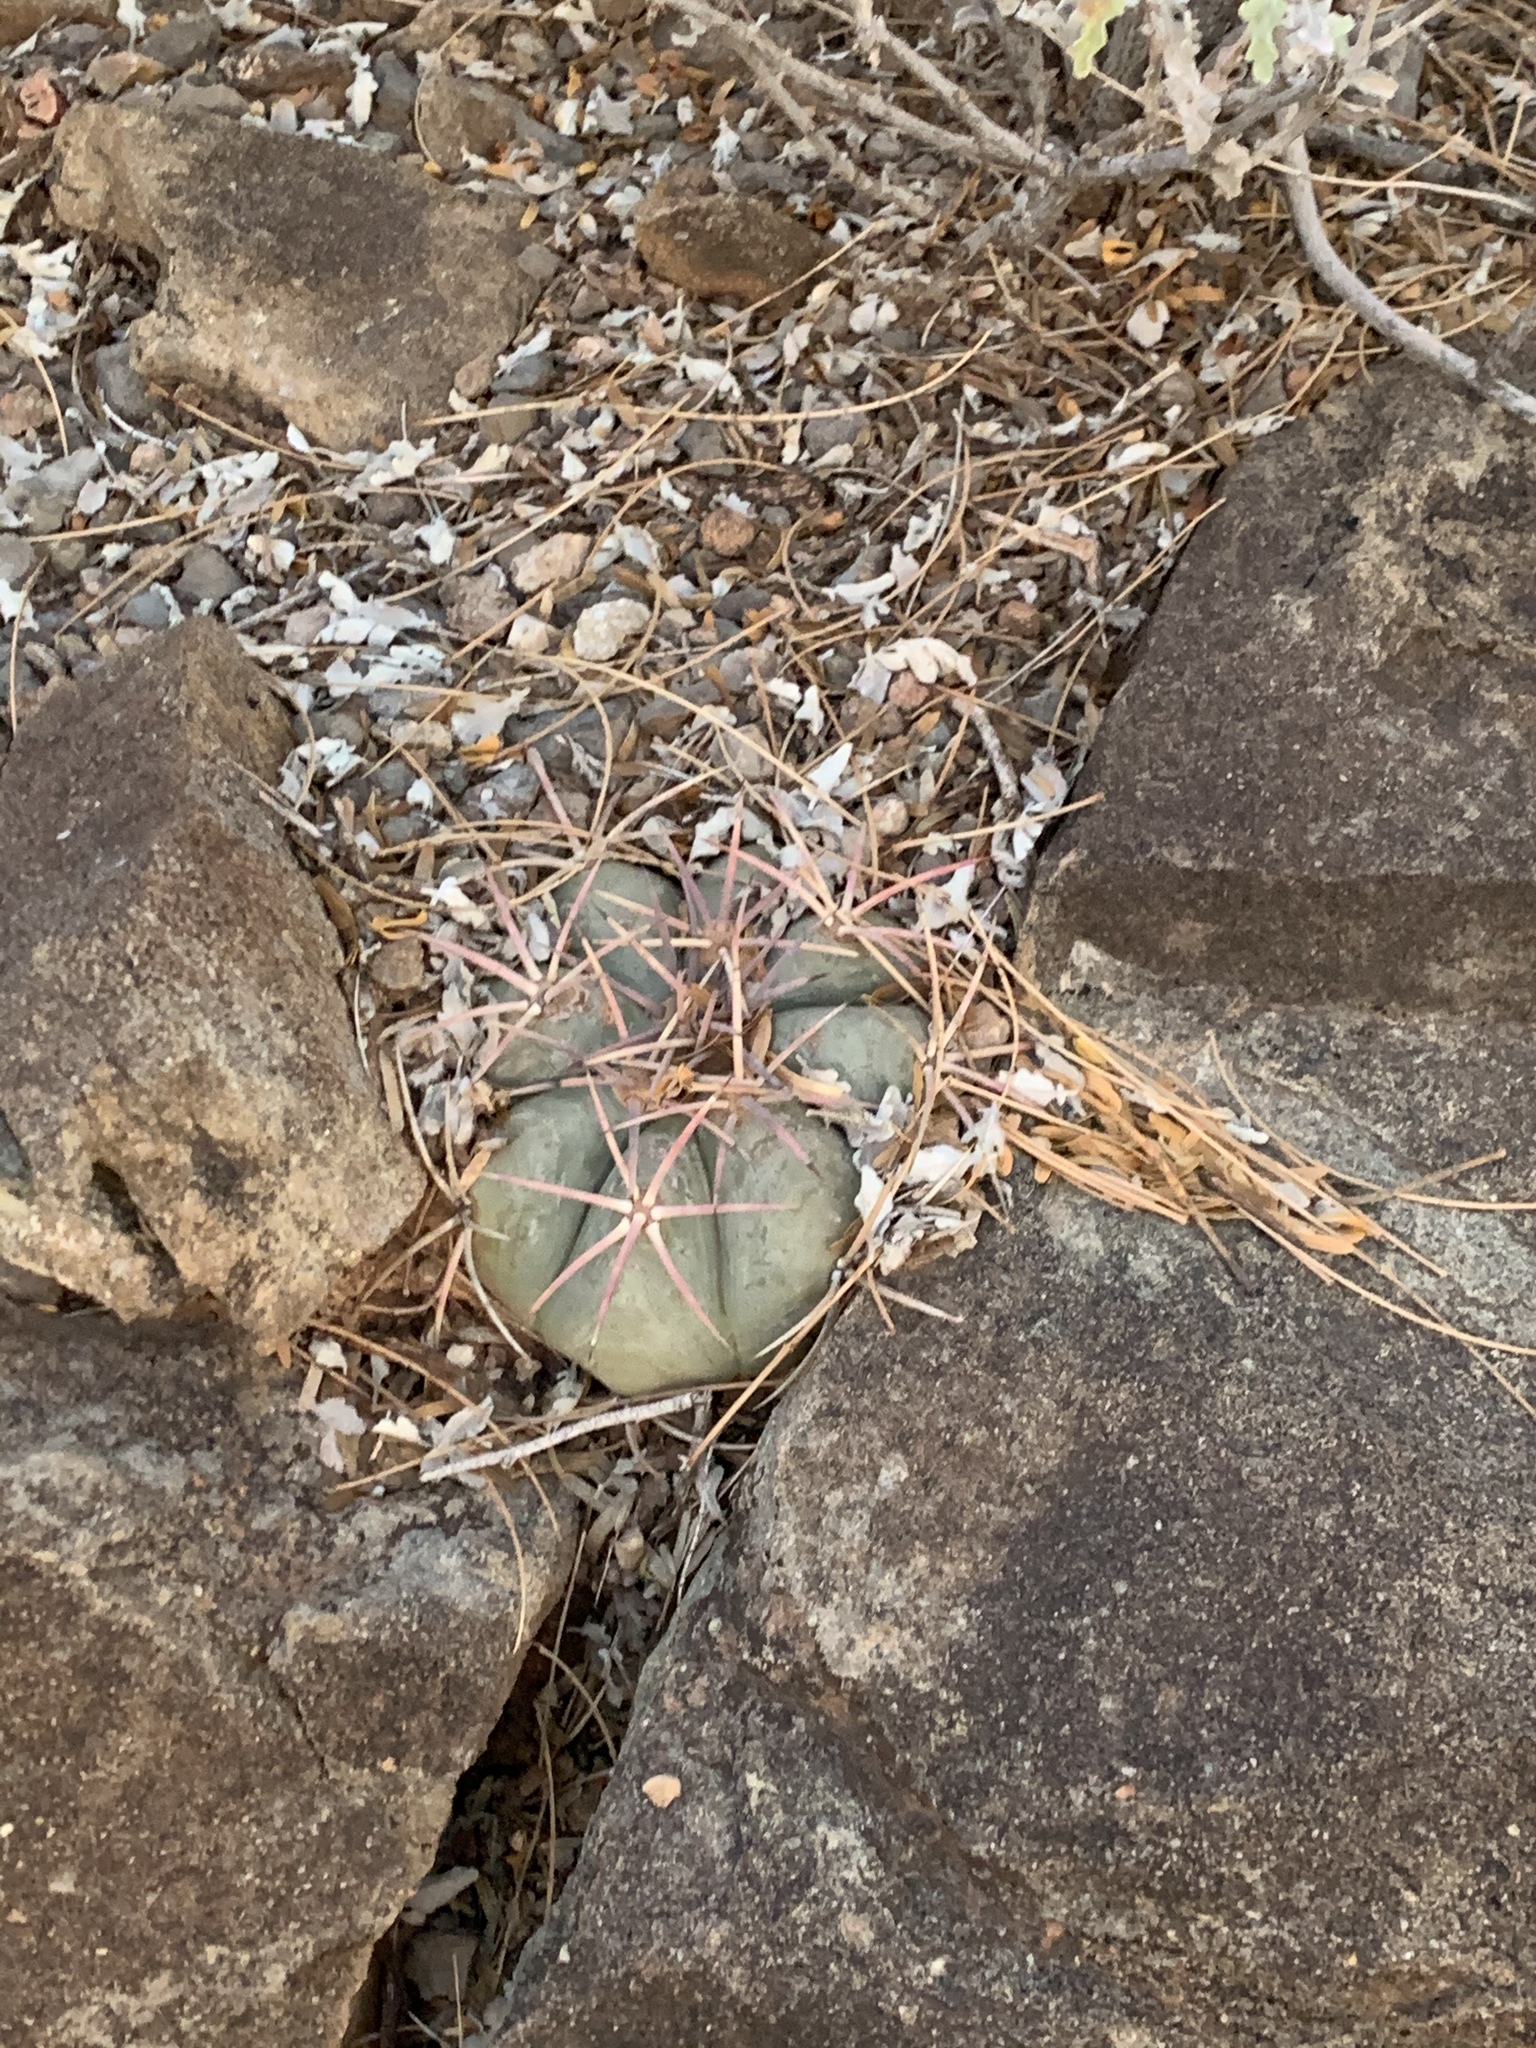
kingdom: Plantae
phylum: Tracheophyta
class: Magnoliopsida
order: Caryophyllales
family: Cactaceae
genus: Echinocactus
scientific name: Echinocactus horizonthalonius
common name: Devilshead
